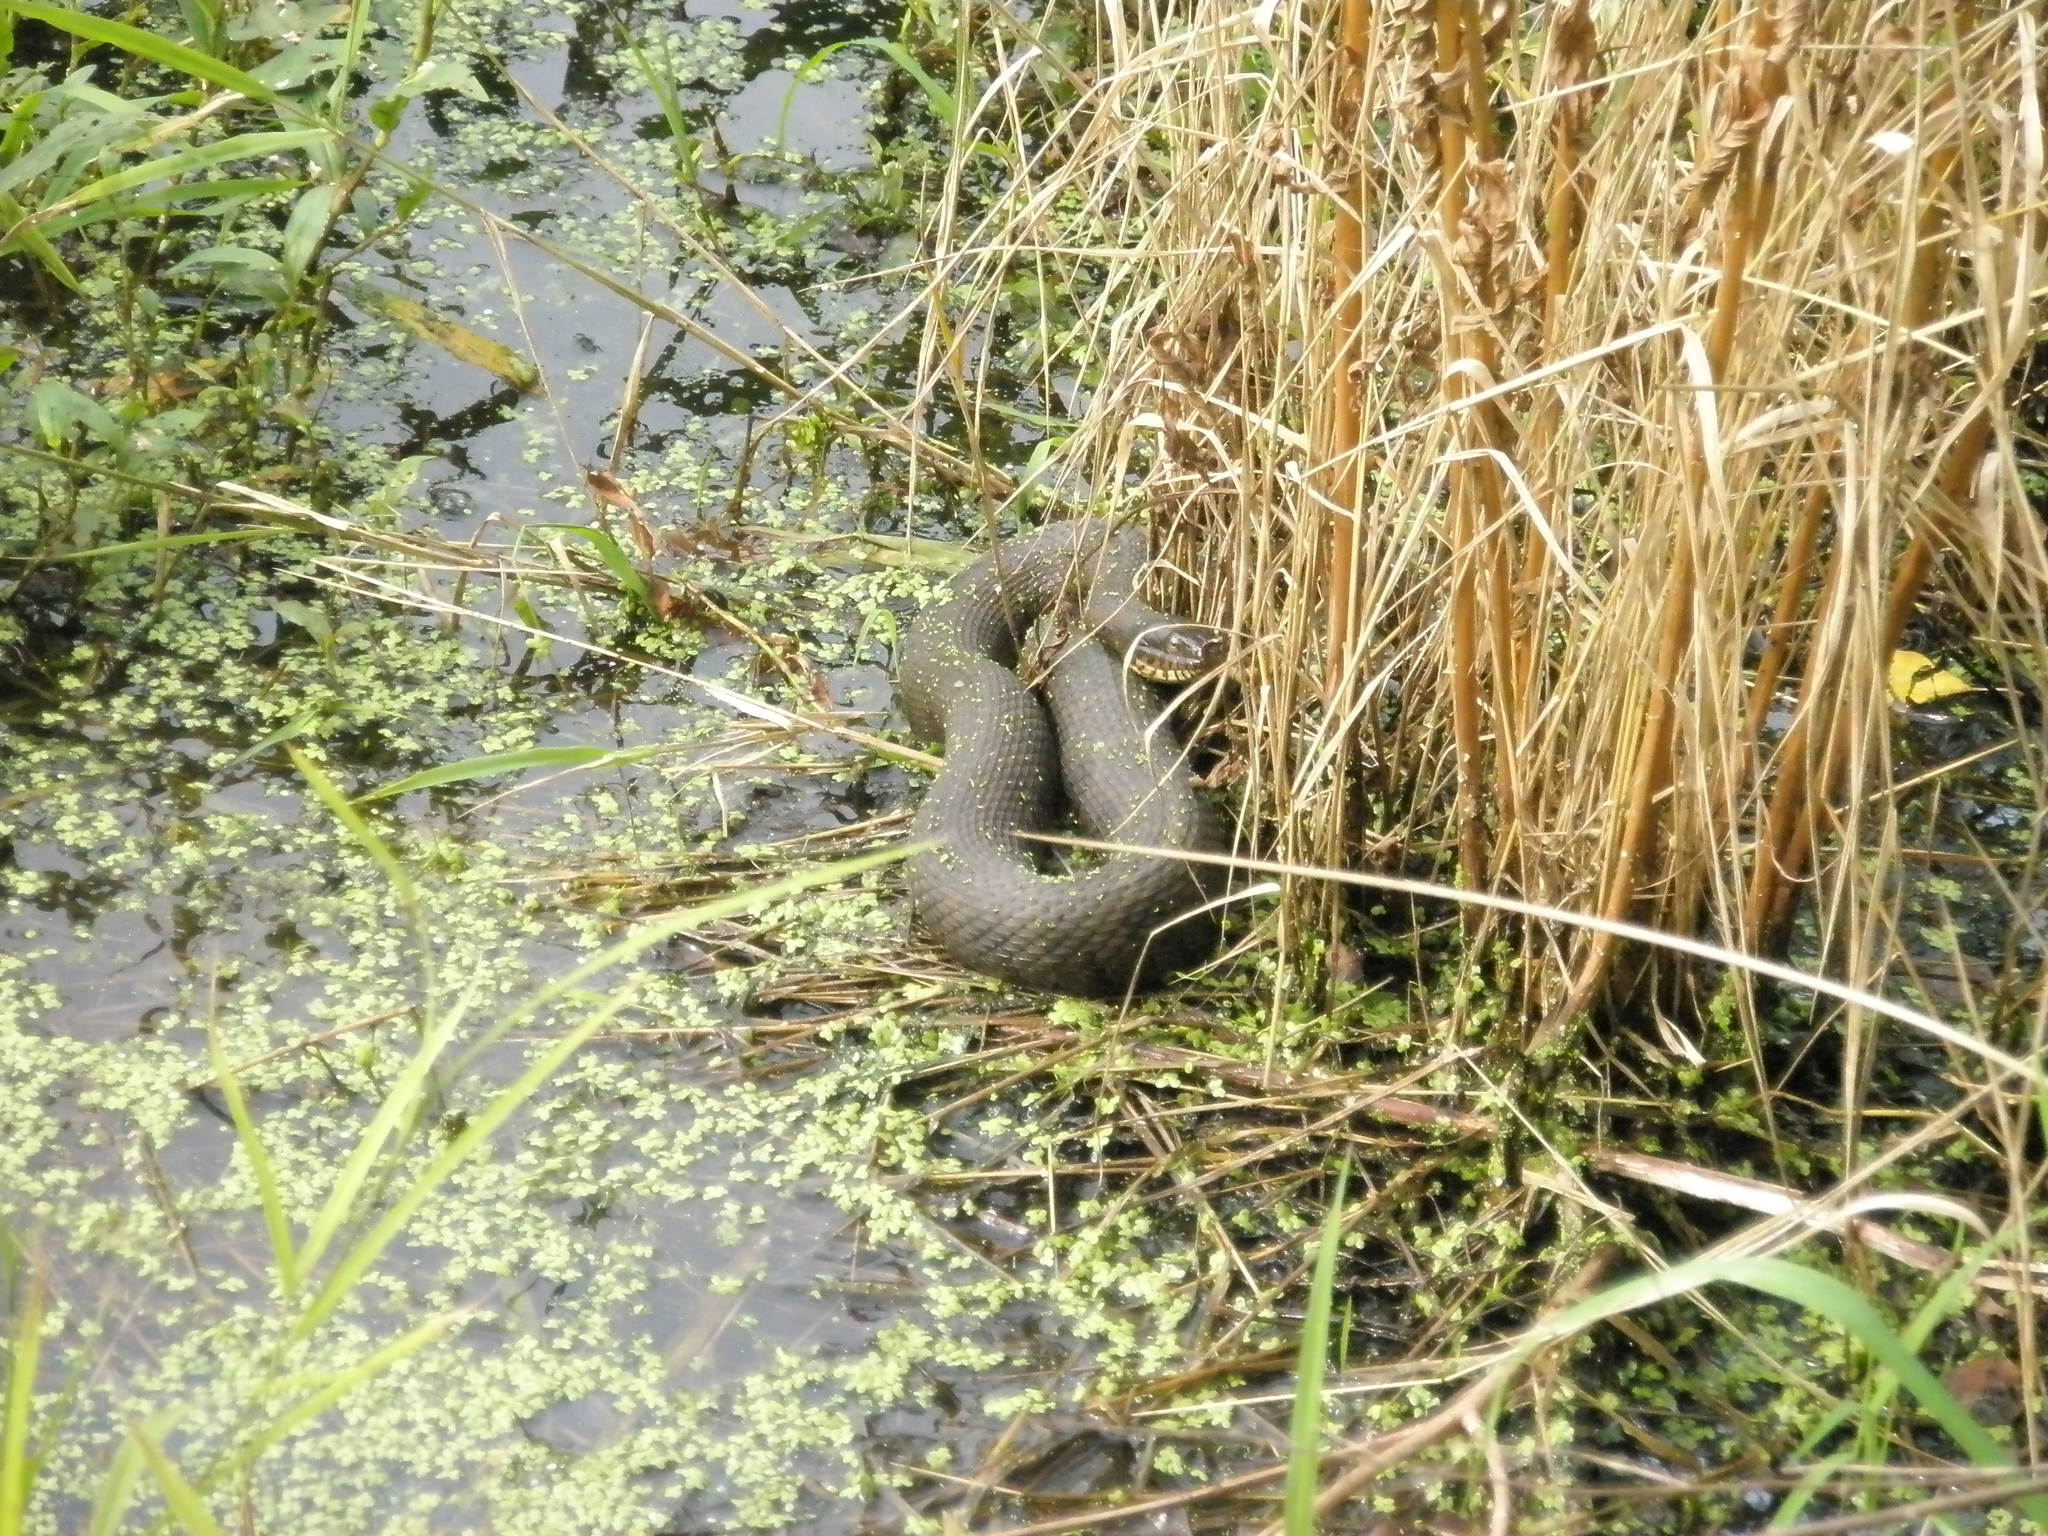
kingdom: Animalia
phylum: Chordata
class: Squamata
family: Colubridae
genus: Nerodia
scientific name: Nerodia sipedon
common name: Northern water snake
